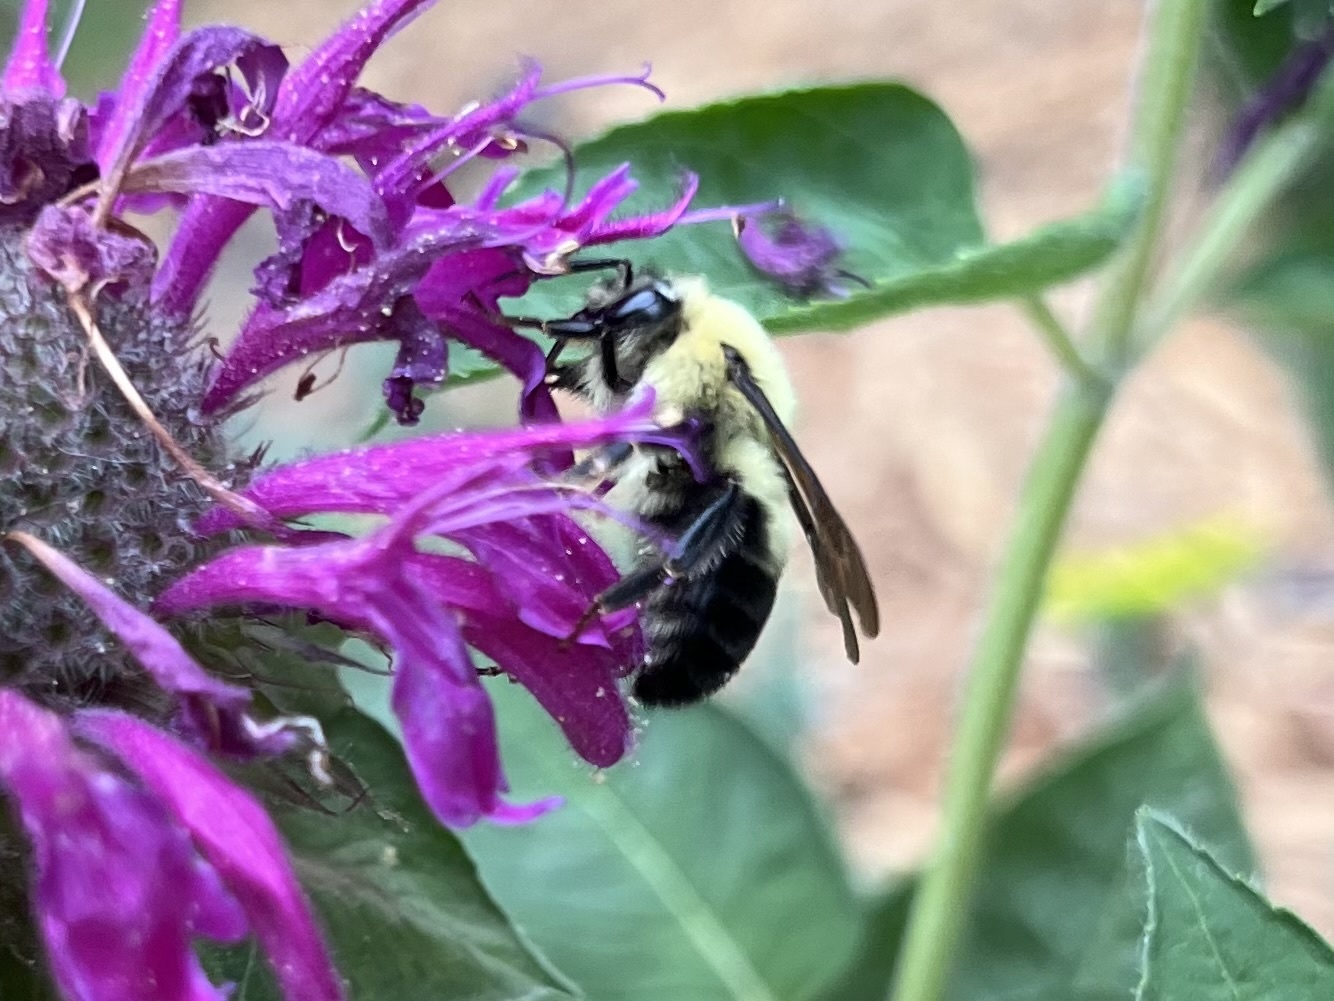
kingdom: Animalia
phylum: Arthropoda
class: Insecta
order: Hymenoptera
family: Apidae
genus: Bombus
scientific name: Bombus bimaculatus
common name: Two-spotted bumble bee
